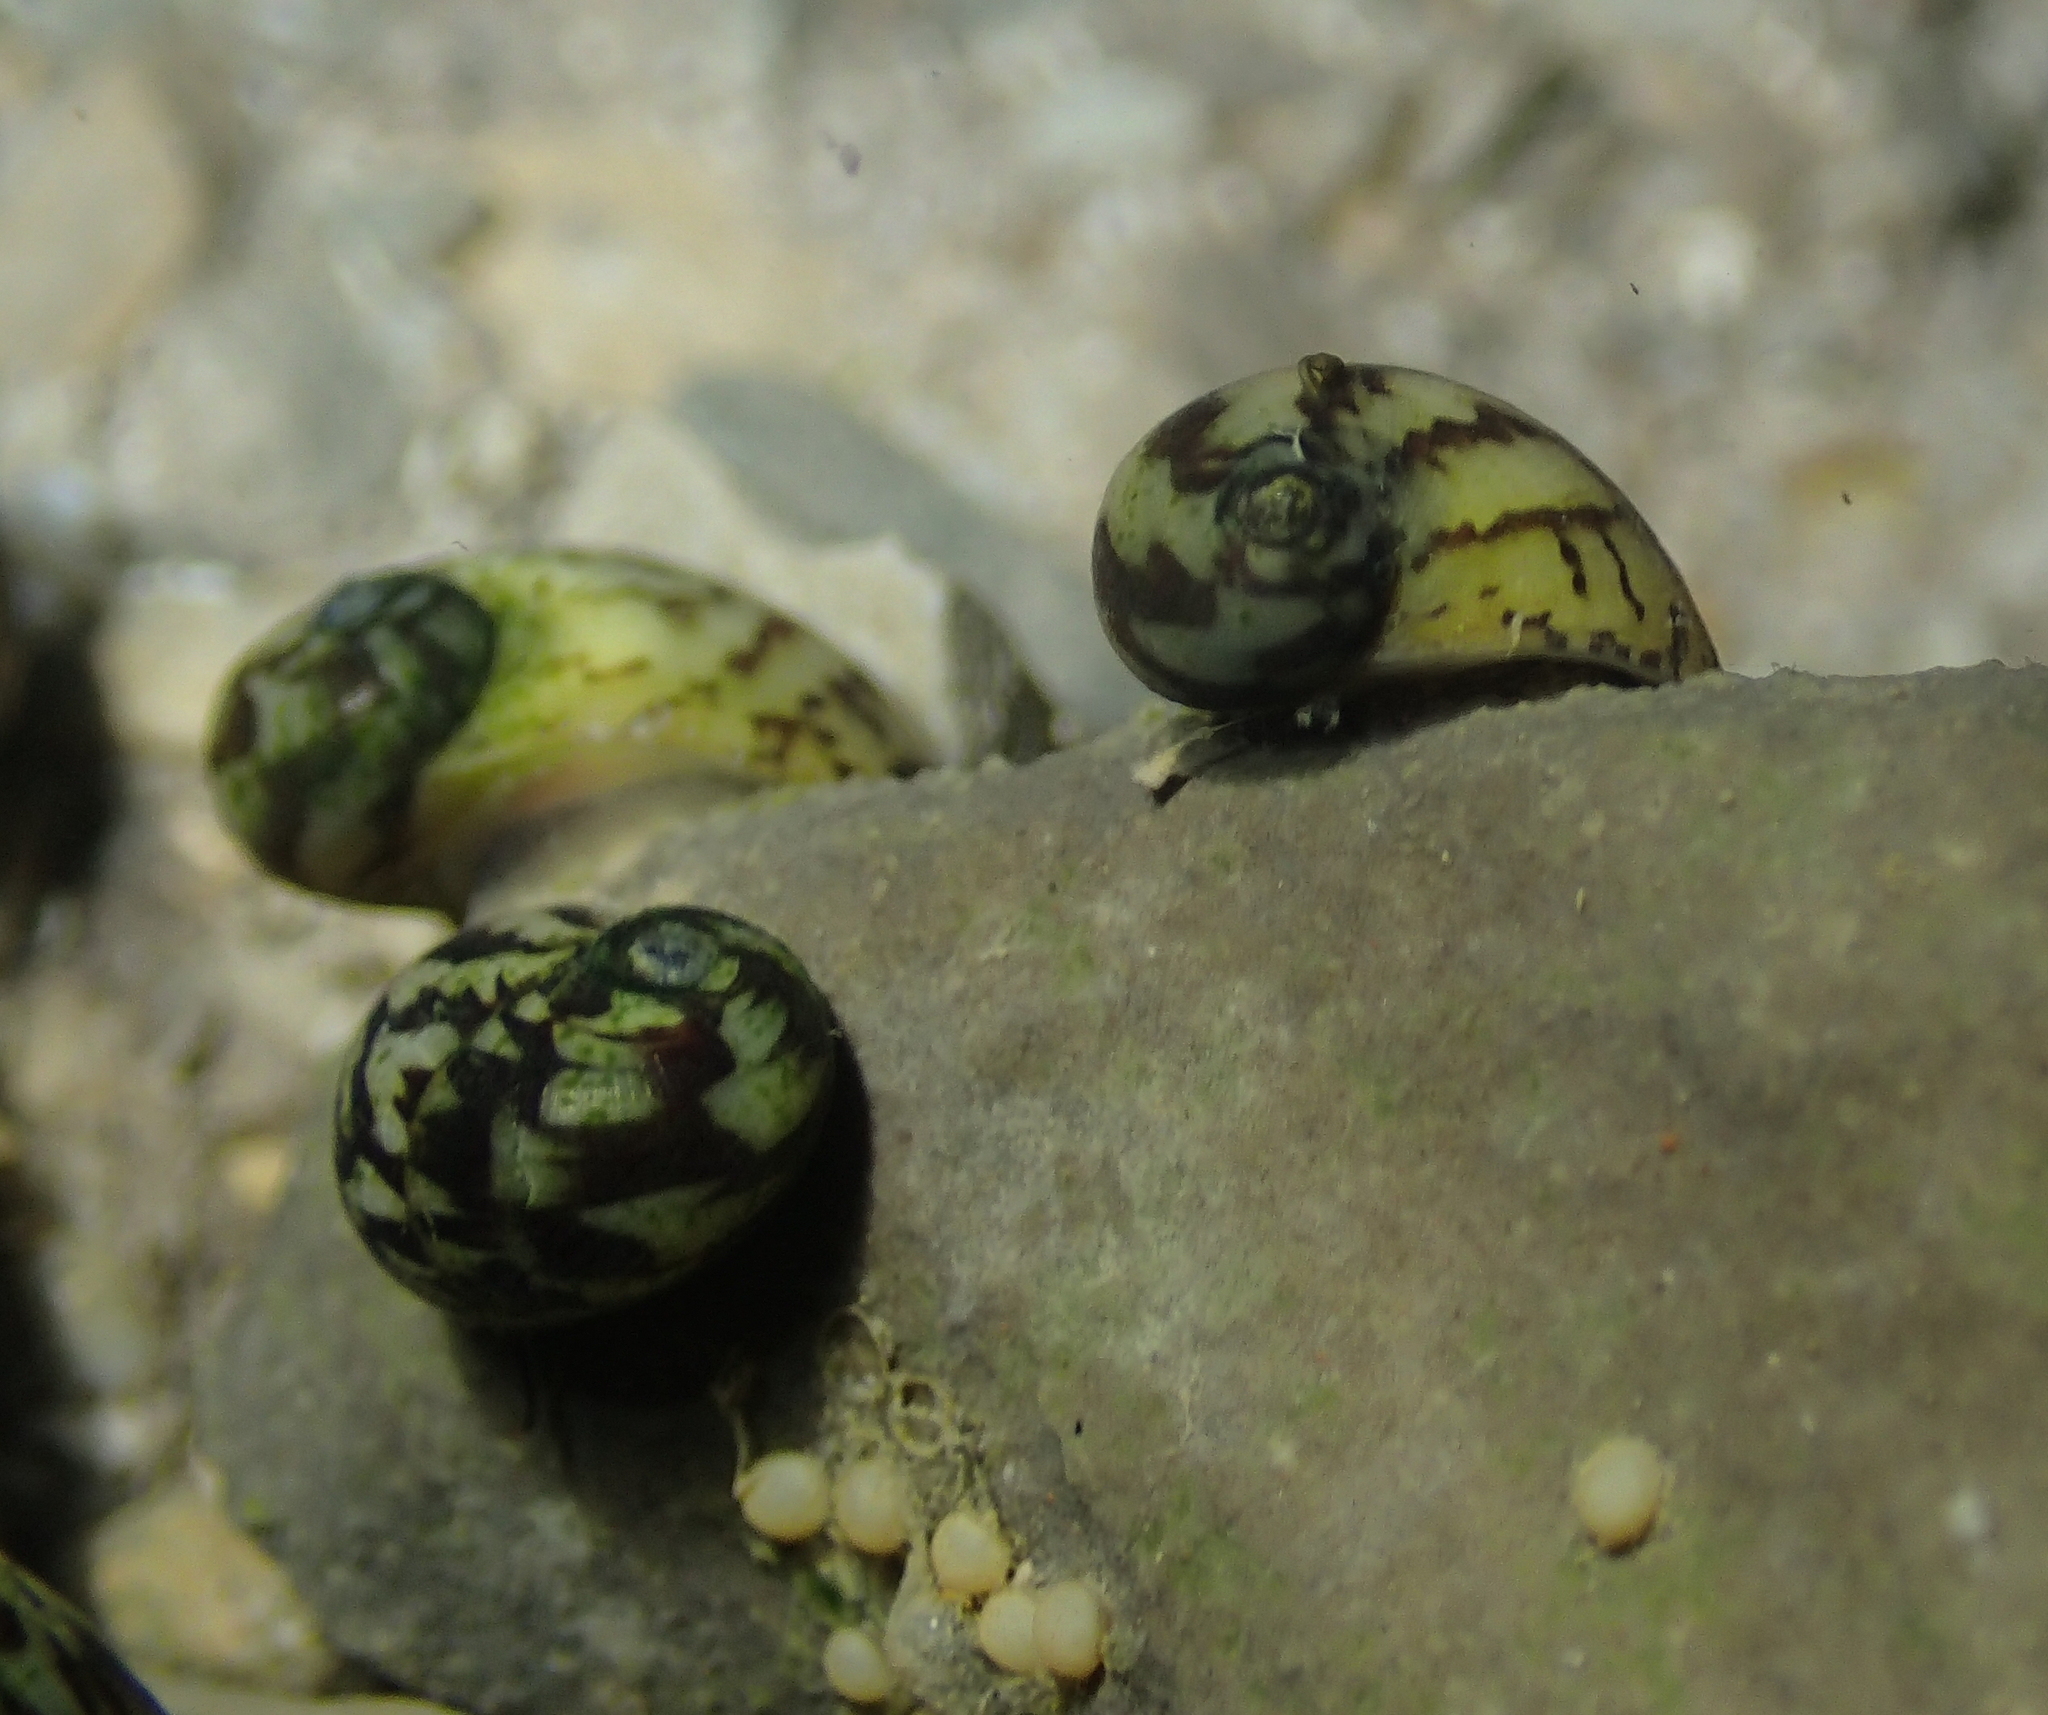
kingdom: Animalia
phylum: Mollusca
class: Gastropoda
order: Cycloneritida
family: Neritidae
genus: Theodoxus
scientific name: Theodoxus fluviatilis
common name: River nerite
